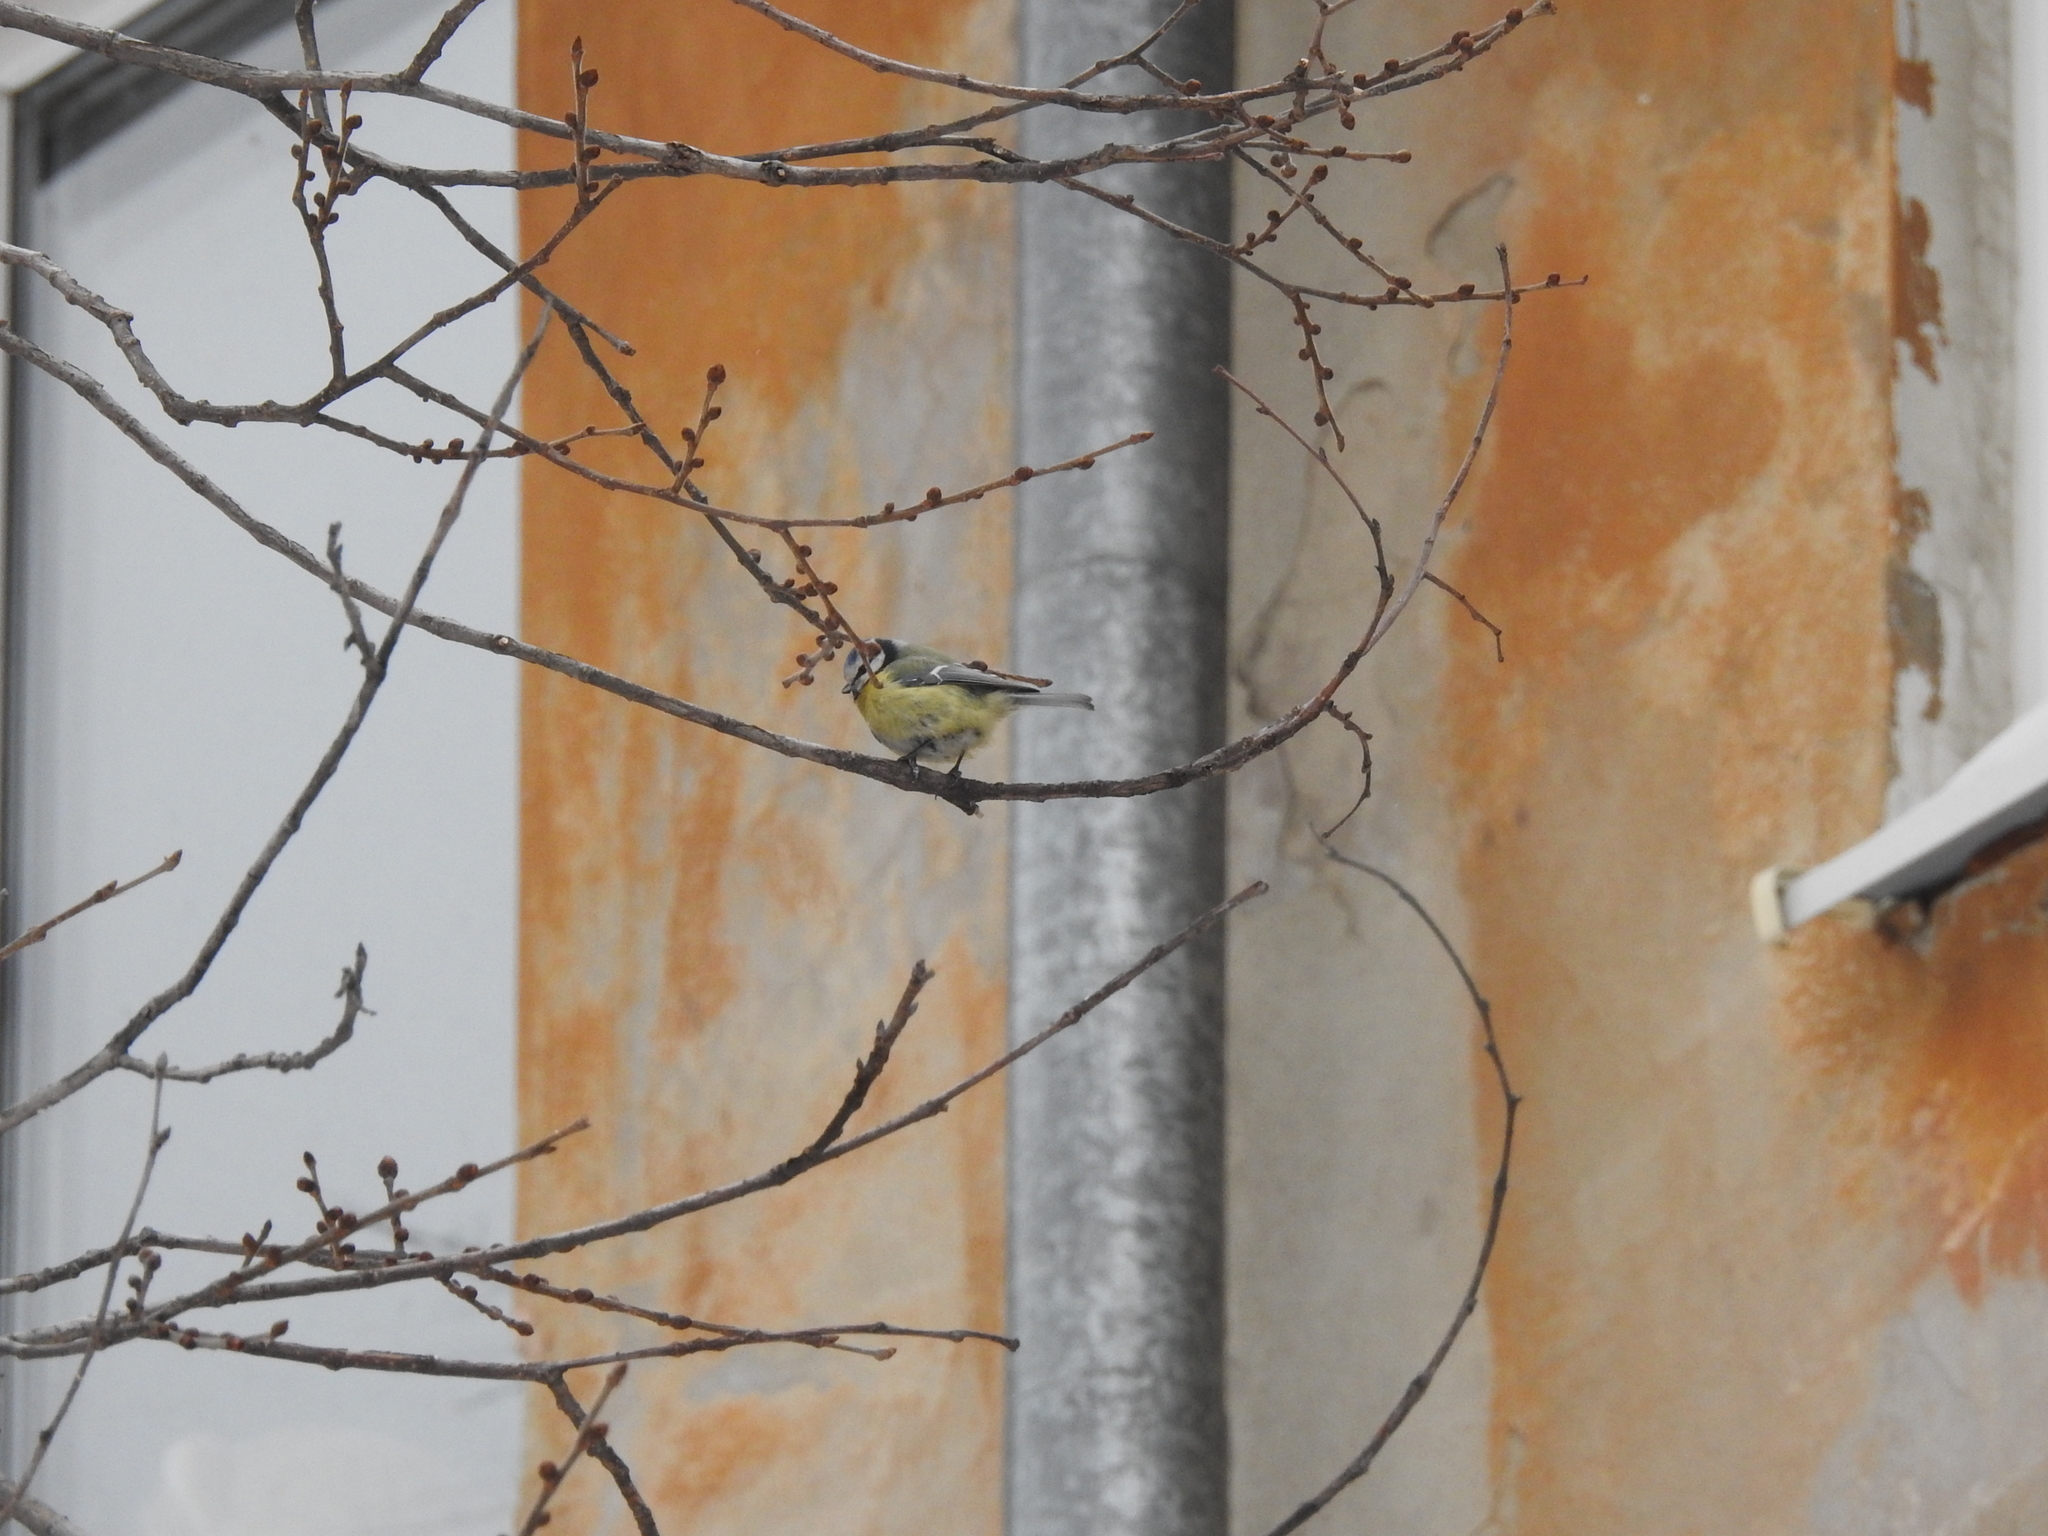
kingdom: Animalia
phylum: Chordata
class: Aves
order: Passeriformes
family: Paridae
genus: Cyanistes
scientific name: Cyanistes caeruleus
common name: Eurasian blue tit
